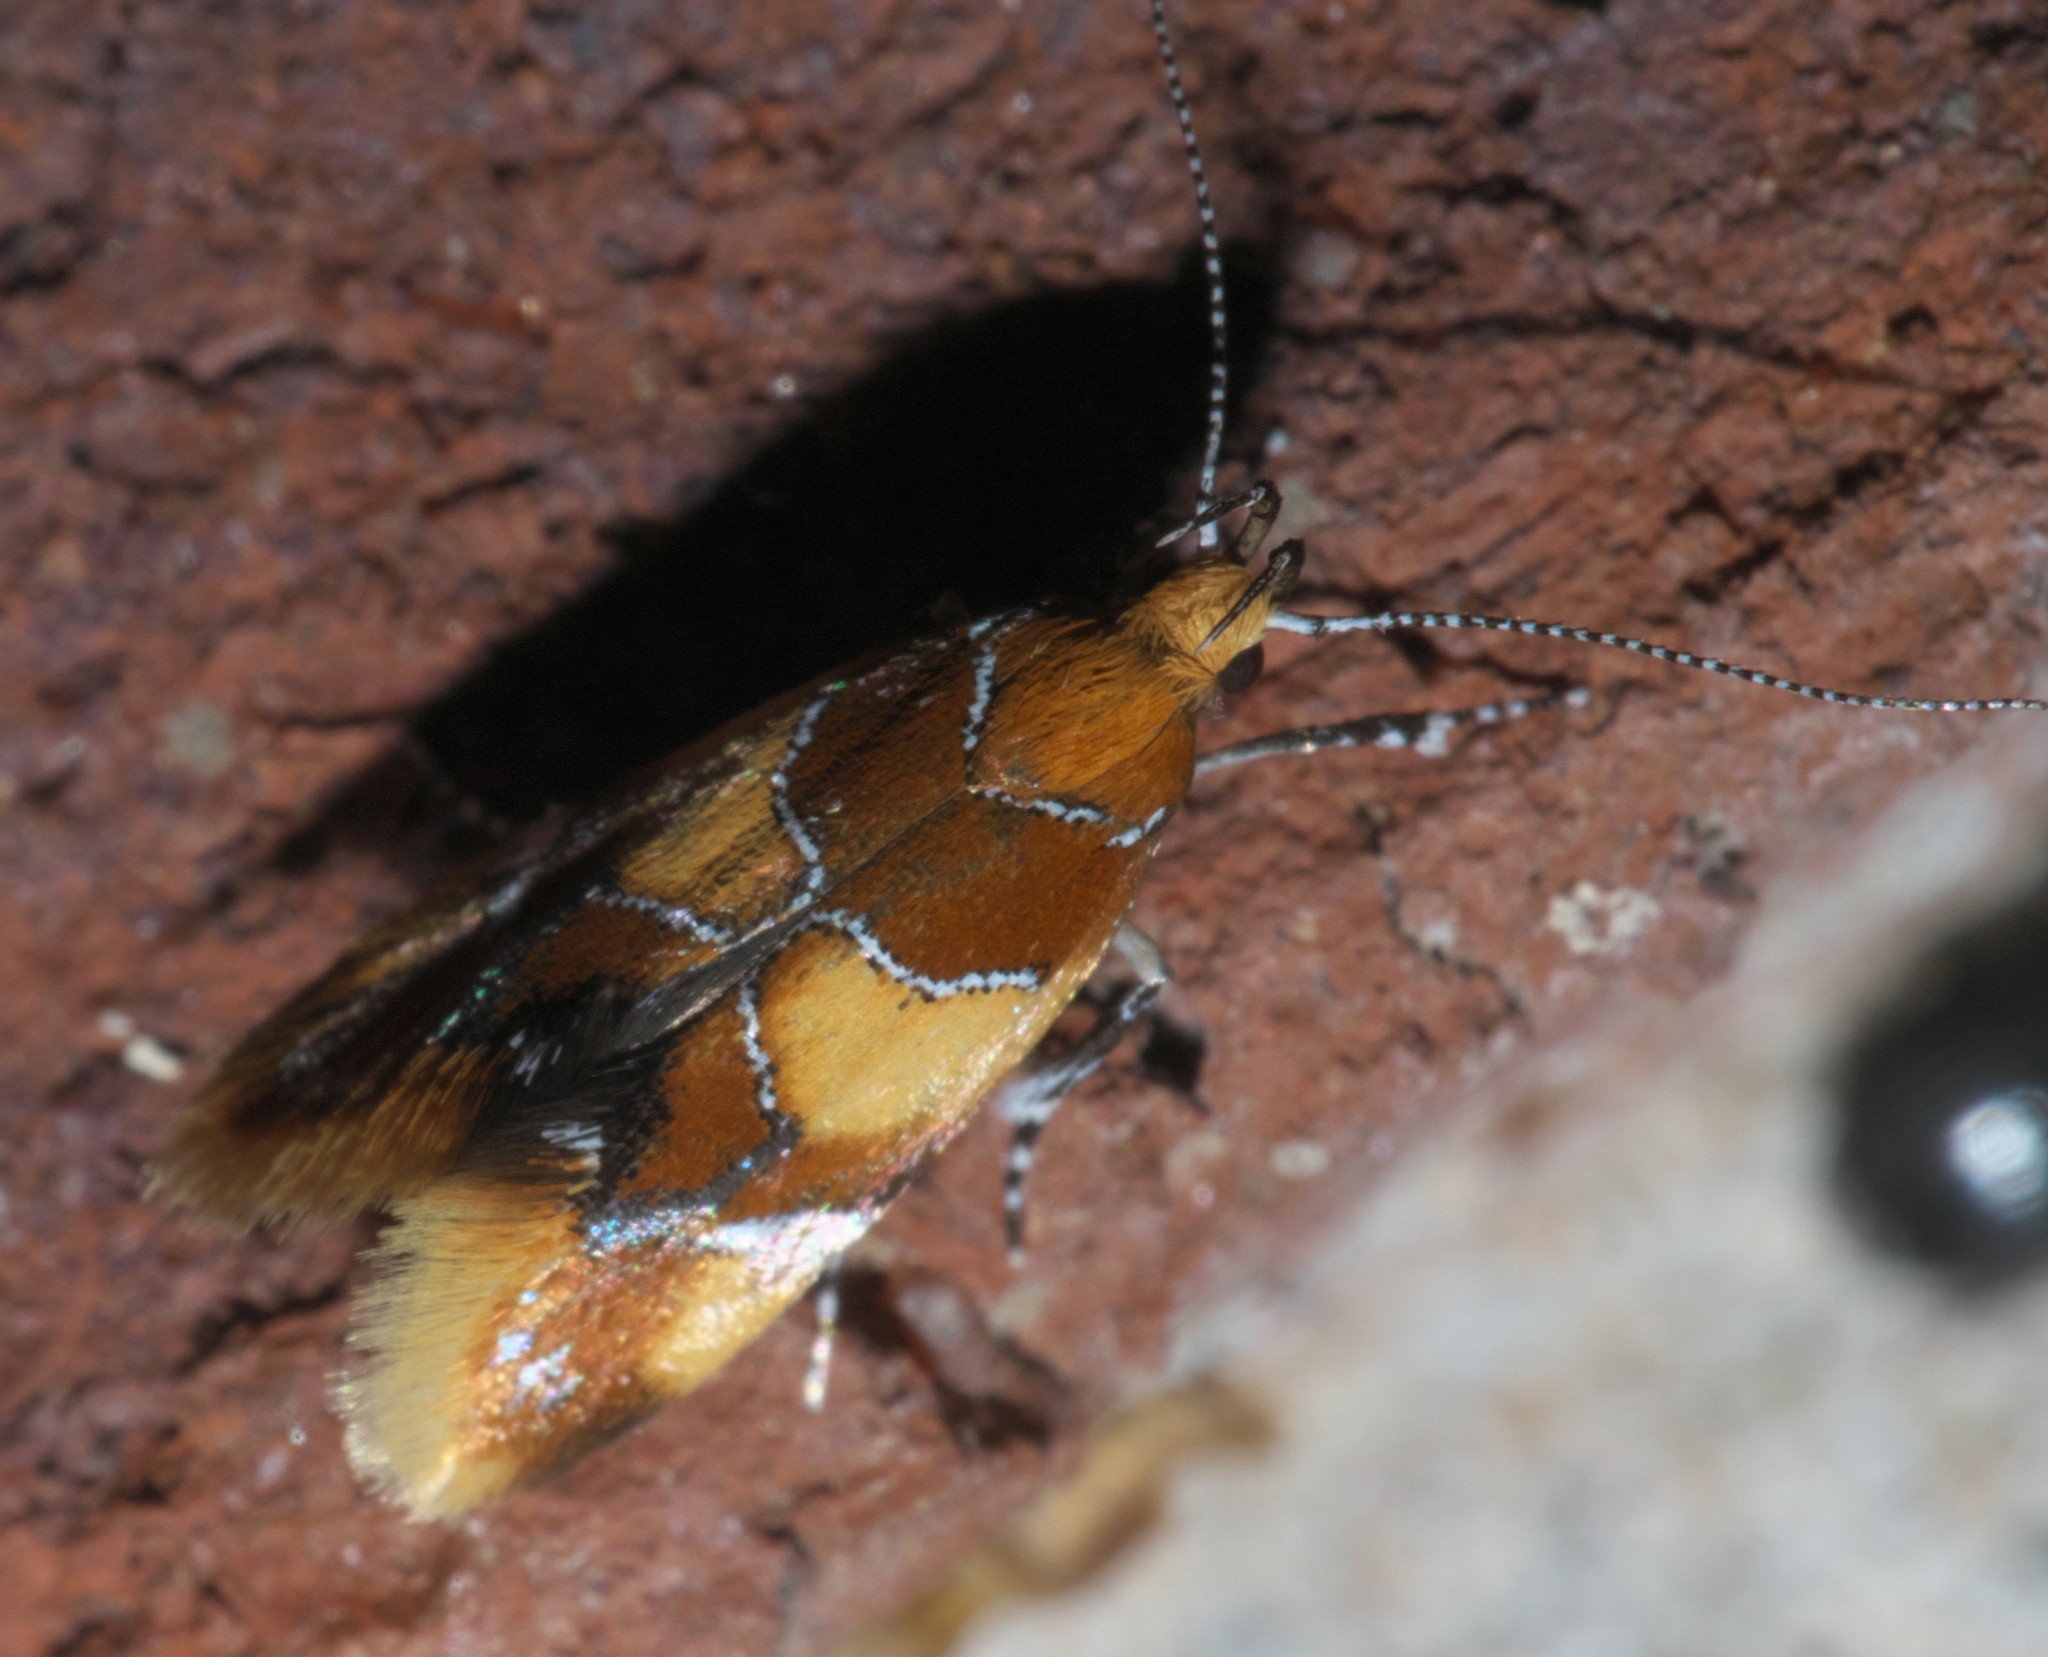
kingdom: Animalia
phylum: Arthropoda
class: Insecta
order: Lepidoptera
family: Oecophoridae
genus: Callima
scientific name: Callima argenticinctella
